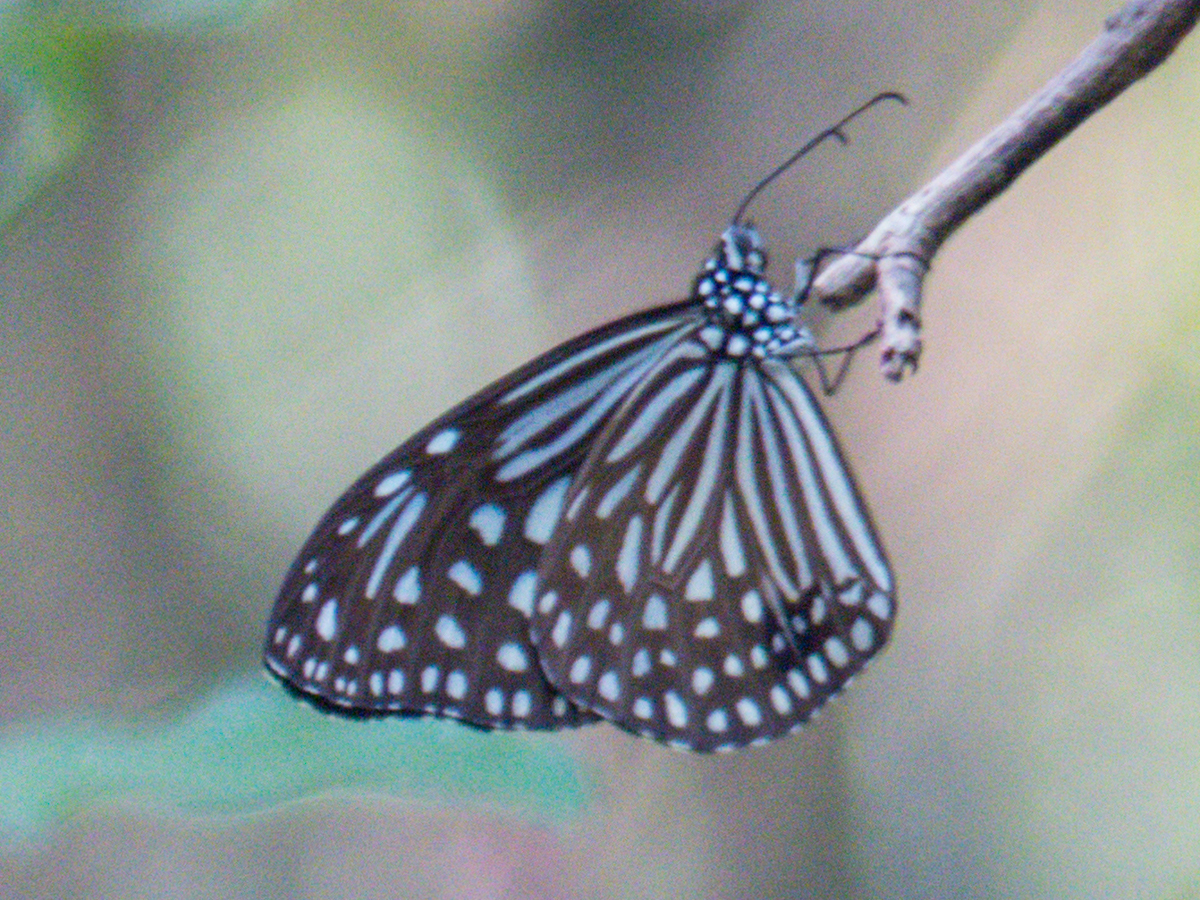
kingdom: Animalia
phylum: Arthropoda
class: Insecta
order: Lepidoptera
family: Nymphalidae
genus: Parantica
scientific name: Parantica agleoides
